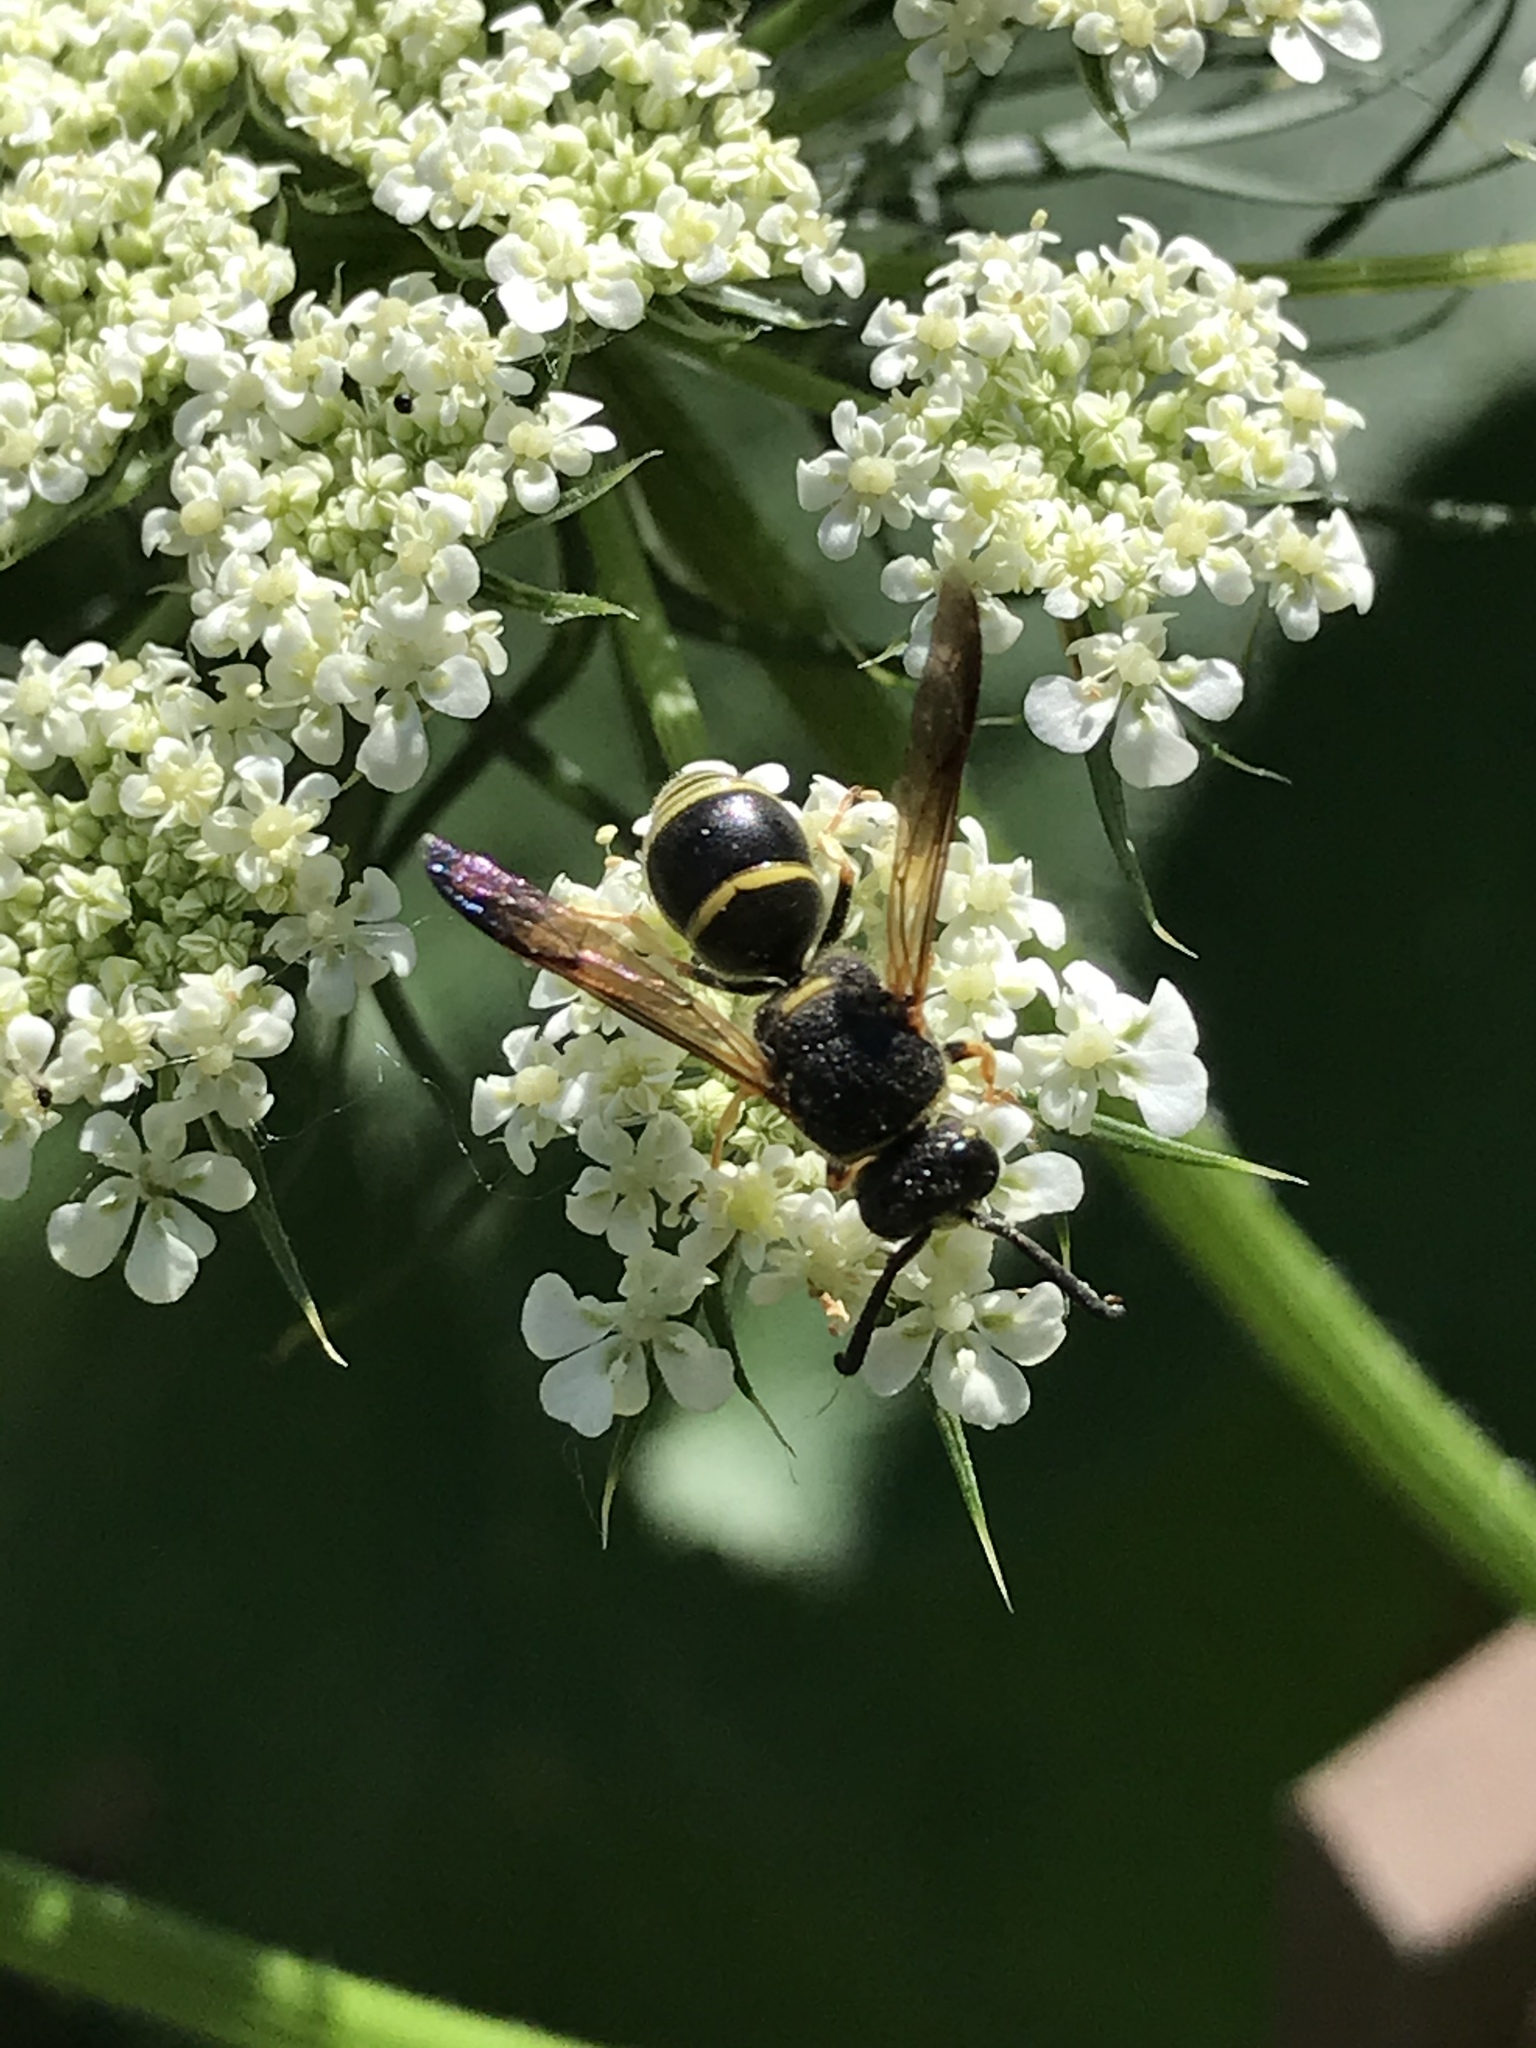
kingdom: Animalia
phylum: Arthropoda
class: Insecta
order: Hymenoptera
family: Eumenidae
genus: Euodynerus
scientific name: Euodynerus foraminatus
